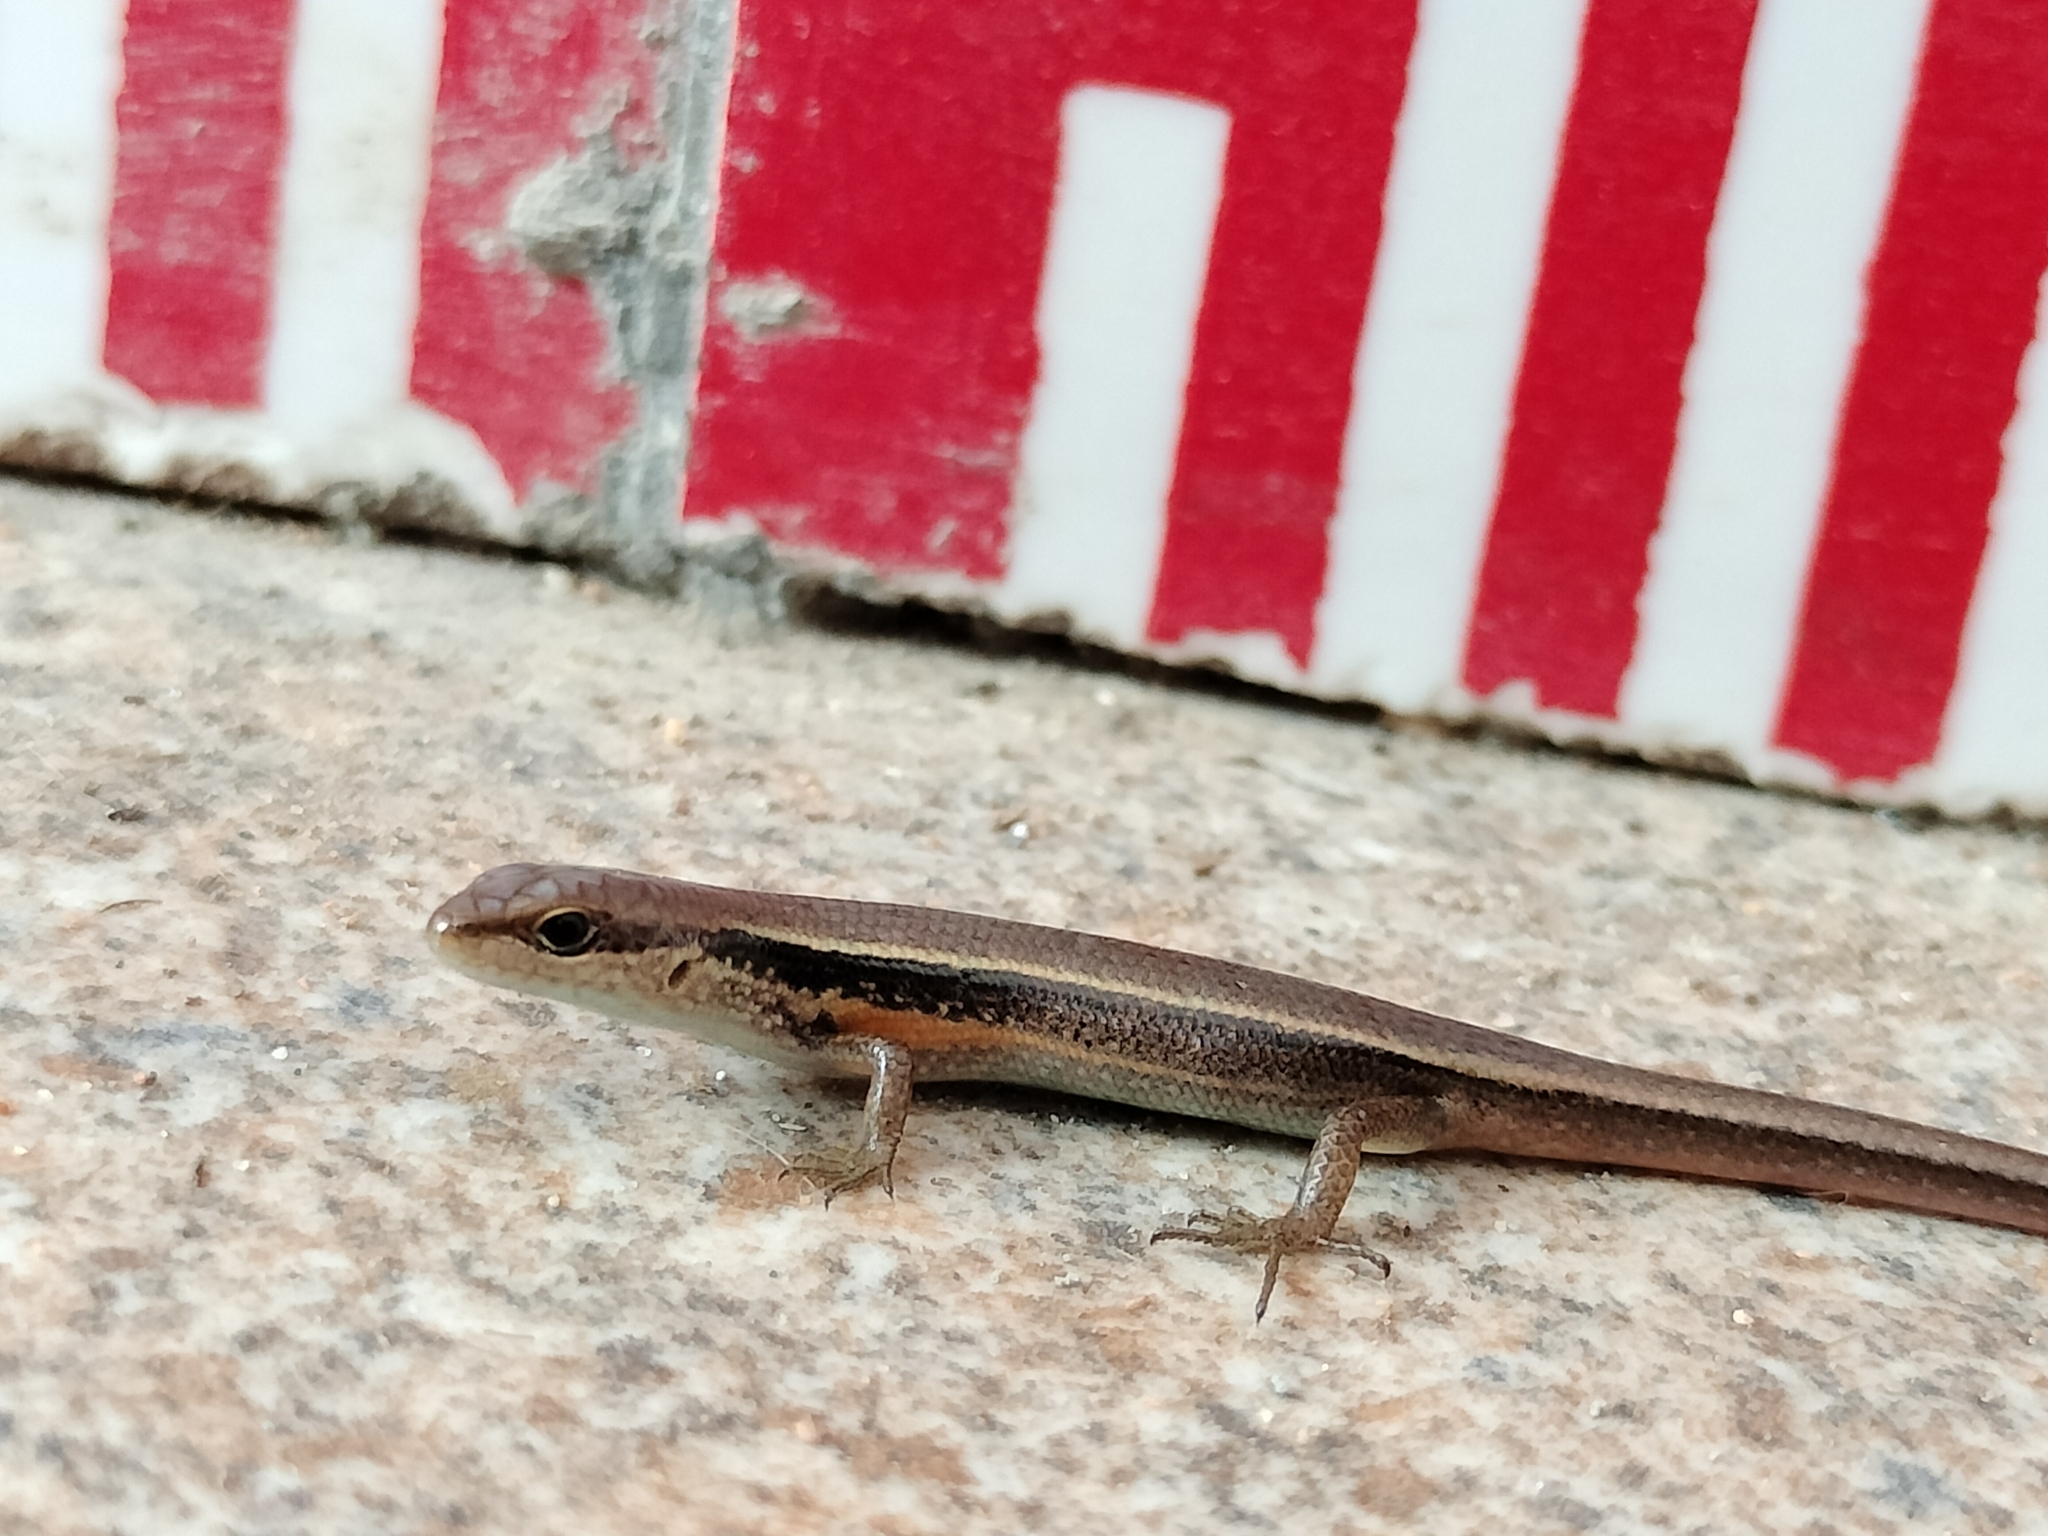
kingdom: Animalia
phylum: Chordata
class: Squamata
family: Scincidae
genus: Asymblepharus
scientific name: Asymblepharus himalayanus
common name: Himalaya ground skink
